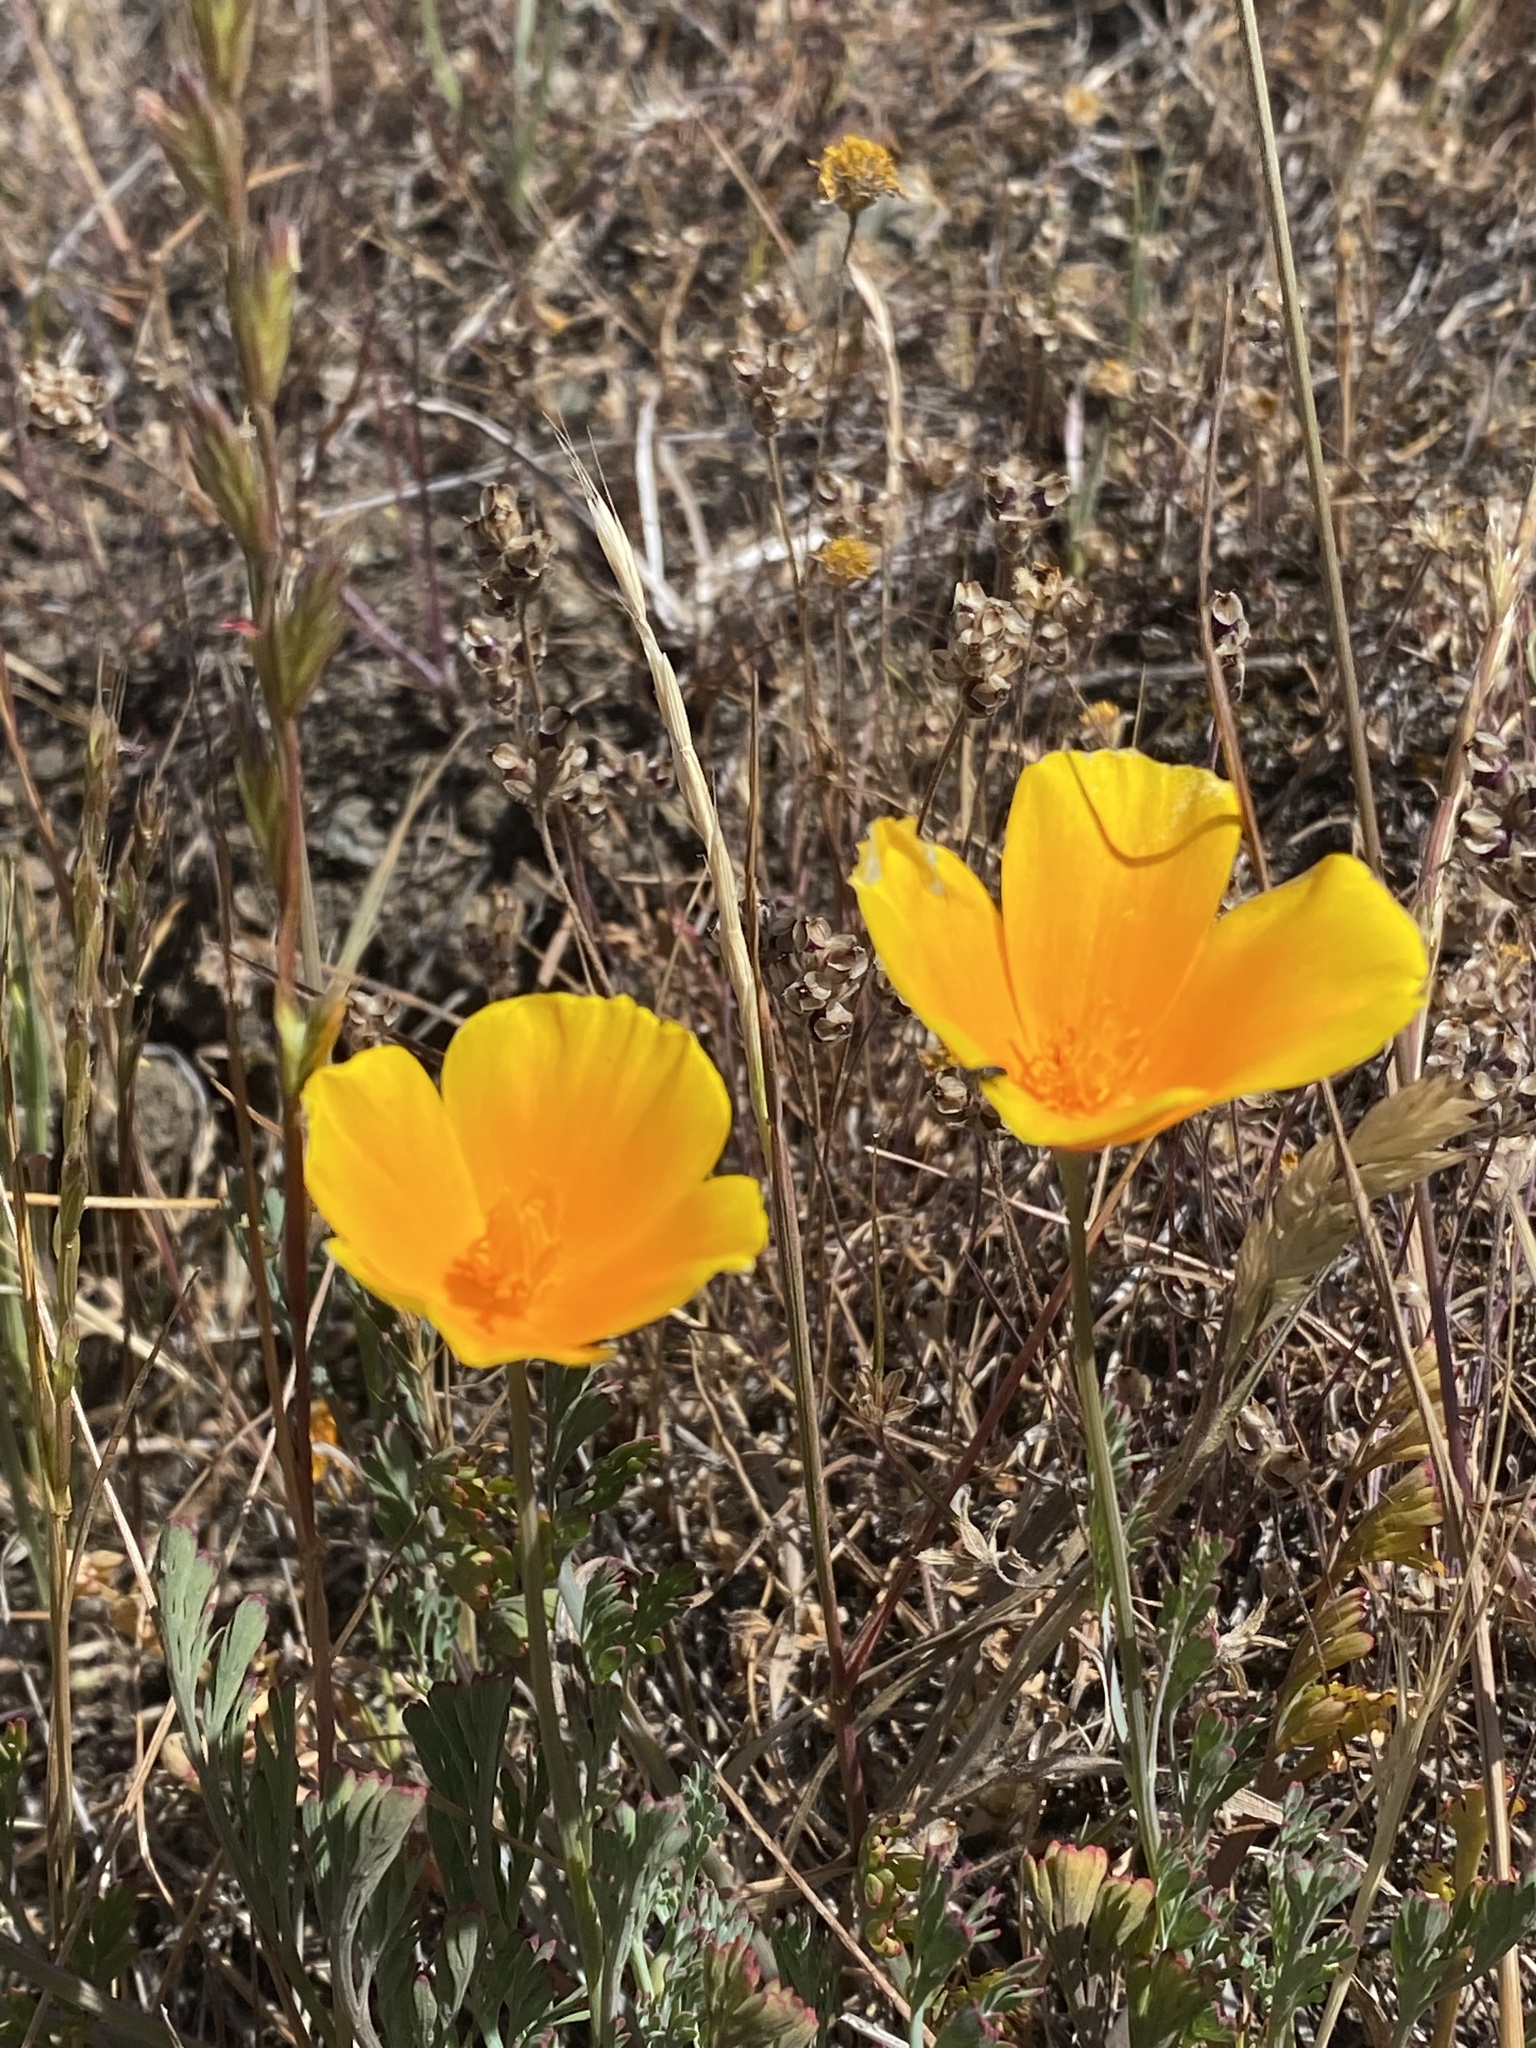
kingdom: Plantae
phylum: Tracheophyta
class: Magnoliopsida
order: Ranunculales
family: Papaveraceae
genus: Eschscholzia
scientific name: Eschscholzia californica
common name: California poppy
